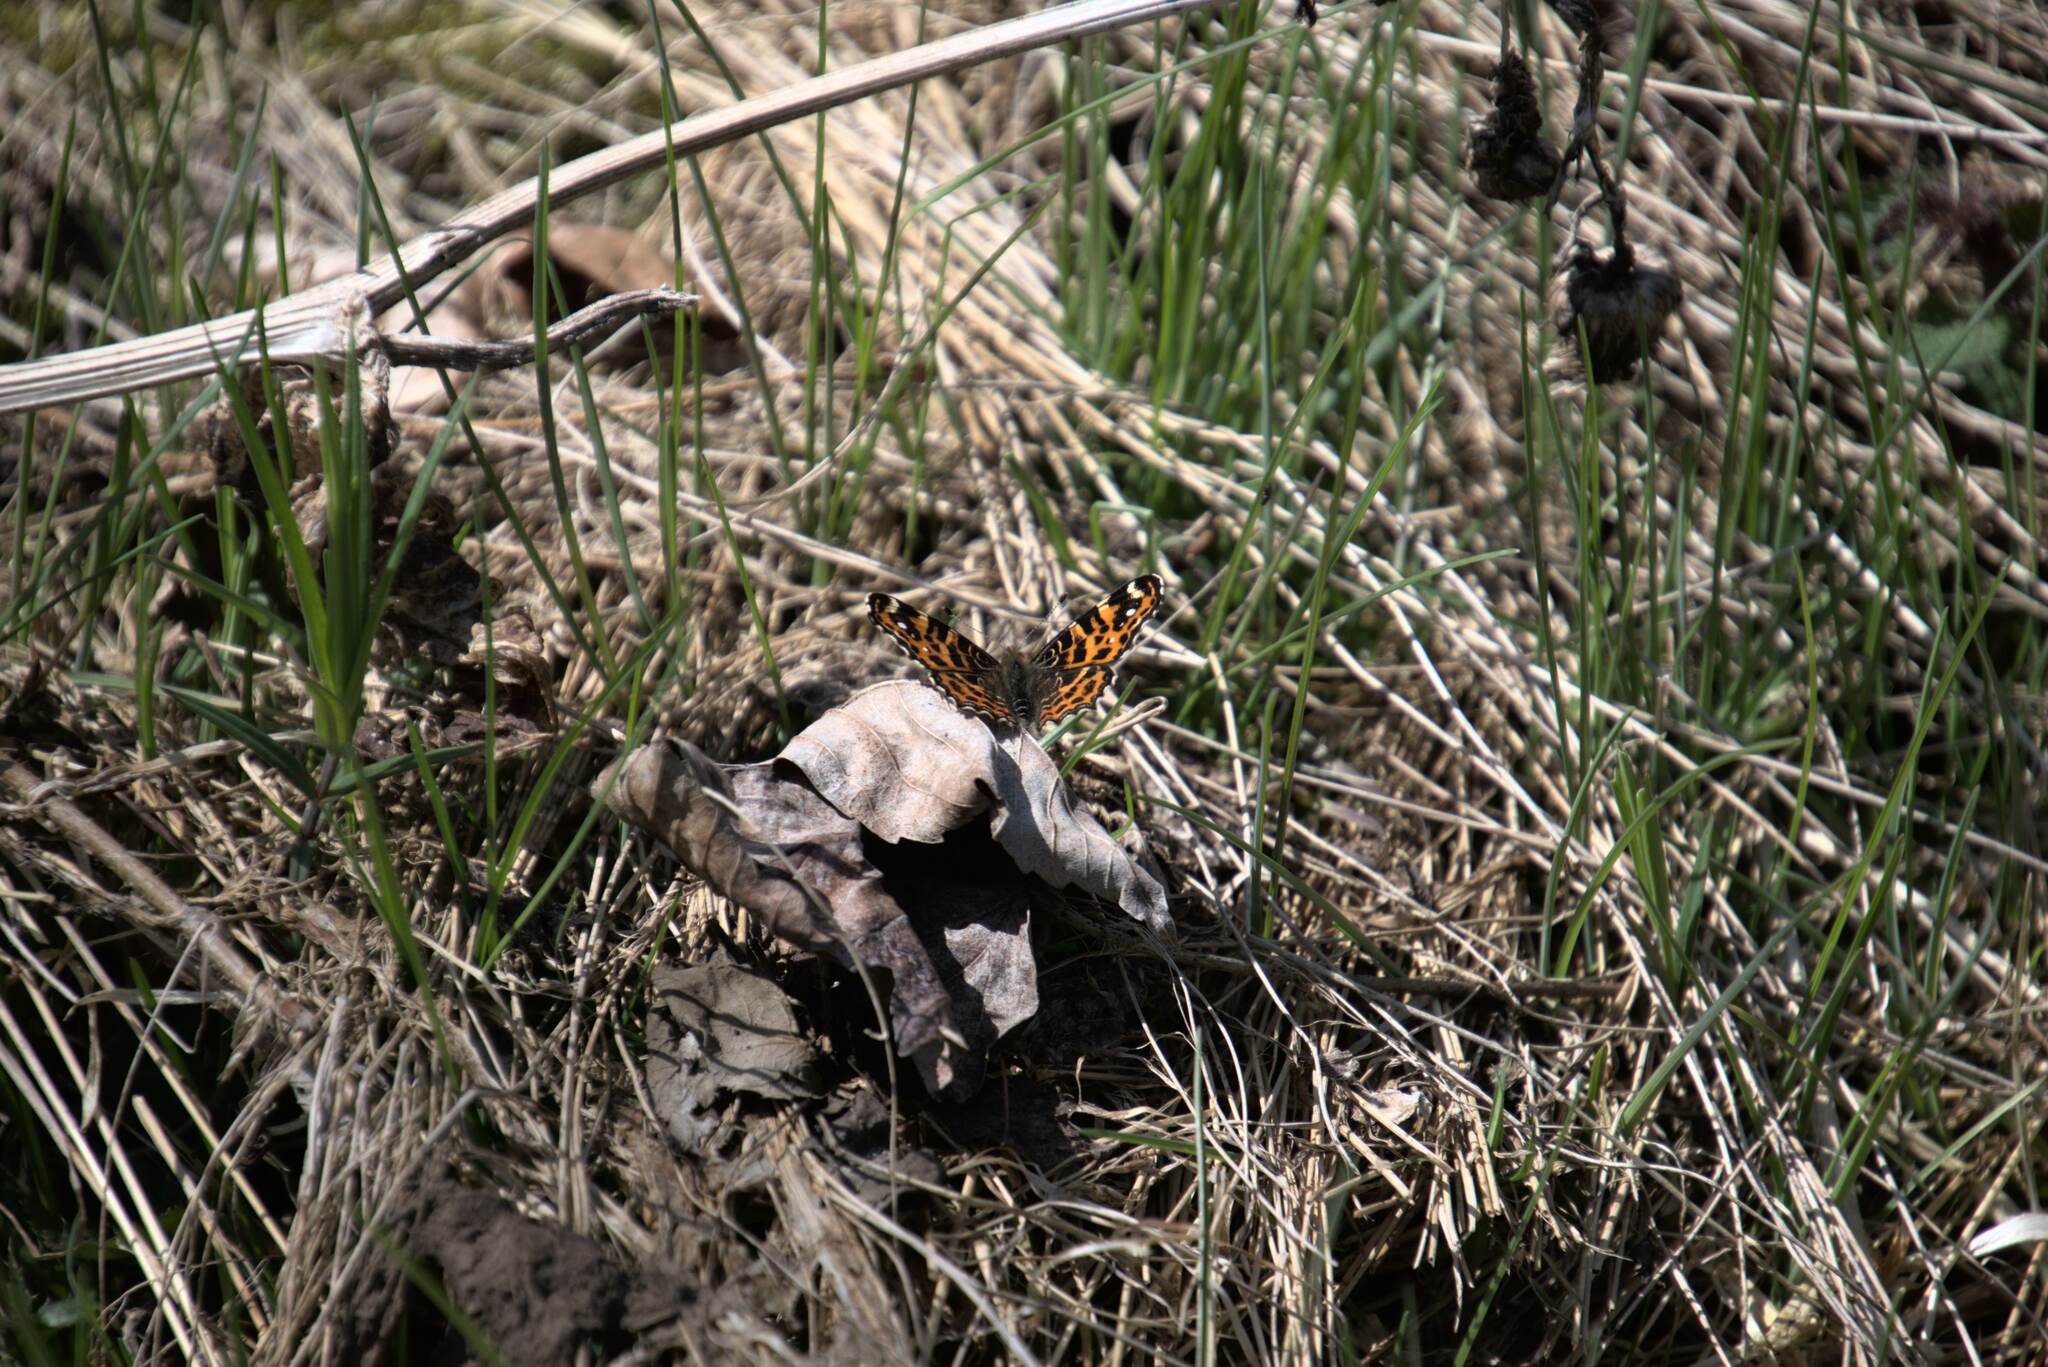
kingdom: Animalia
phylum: Arthropoda
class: Insecta
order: Lepidoptera
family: Nymphalidae
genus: Araschnia
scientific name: Araschnia levana
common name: Map butterfly
